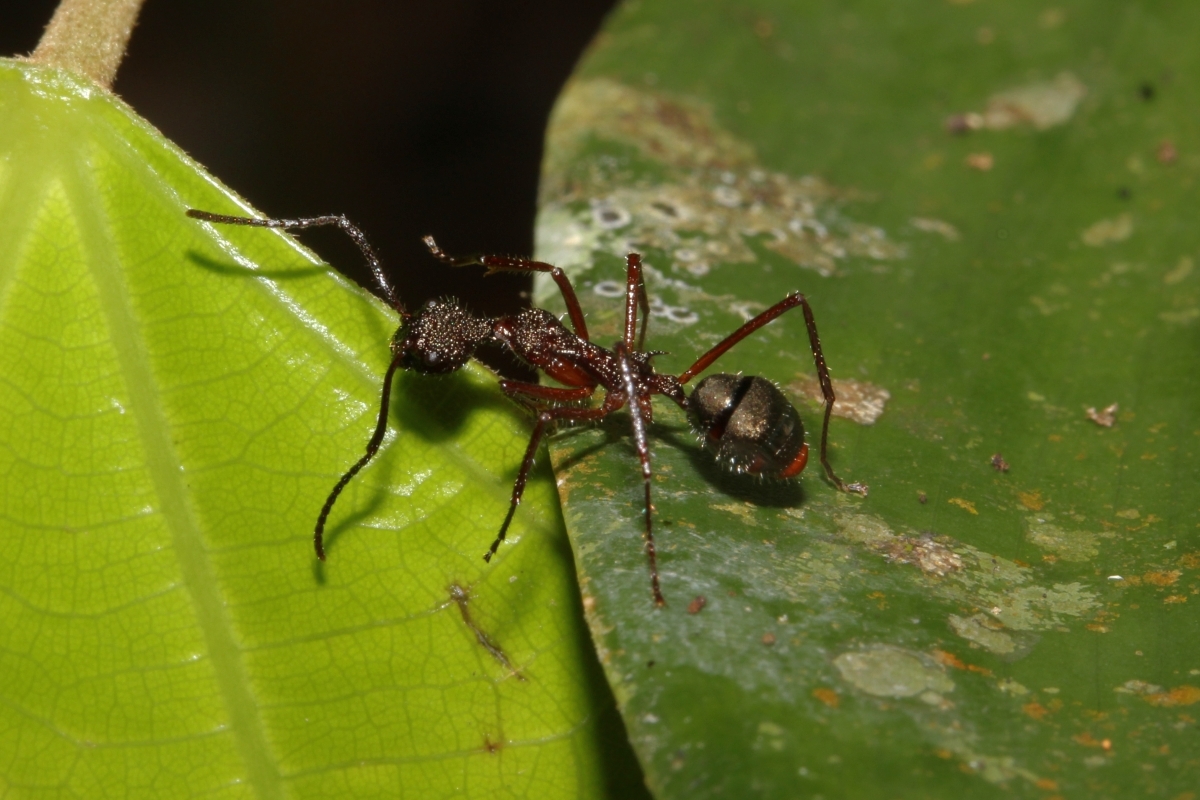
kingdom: Animalia
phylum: Arthropoda
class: Insecta
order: Hymenoptera
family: Formicidae
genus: Dolichoderus
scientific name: Dolichoderus longicollis
